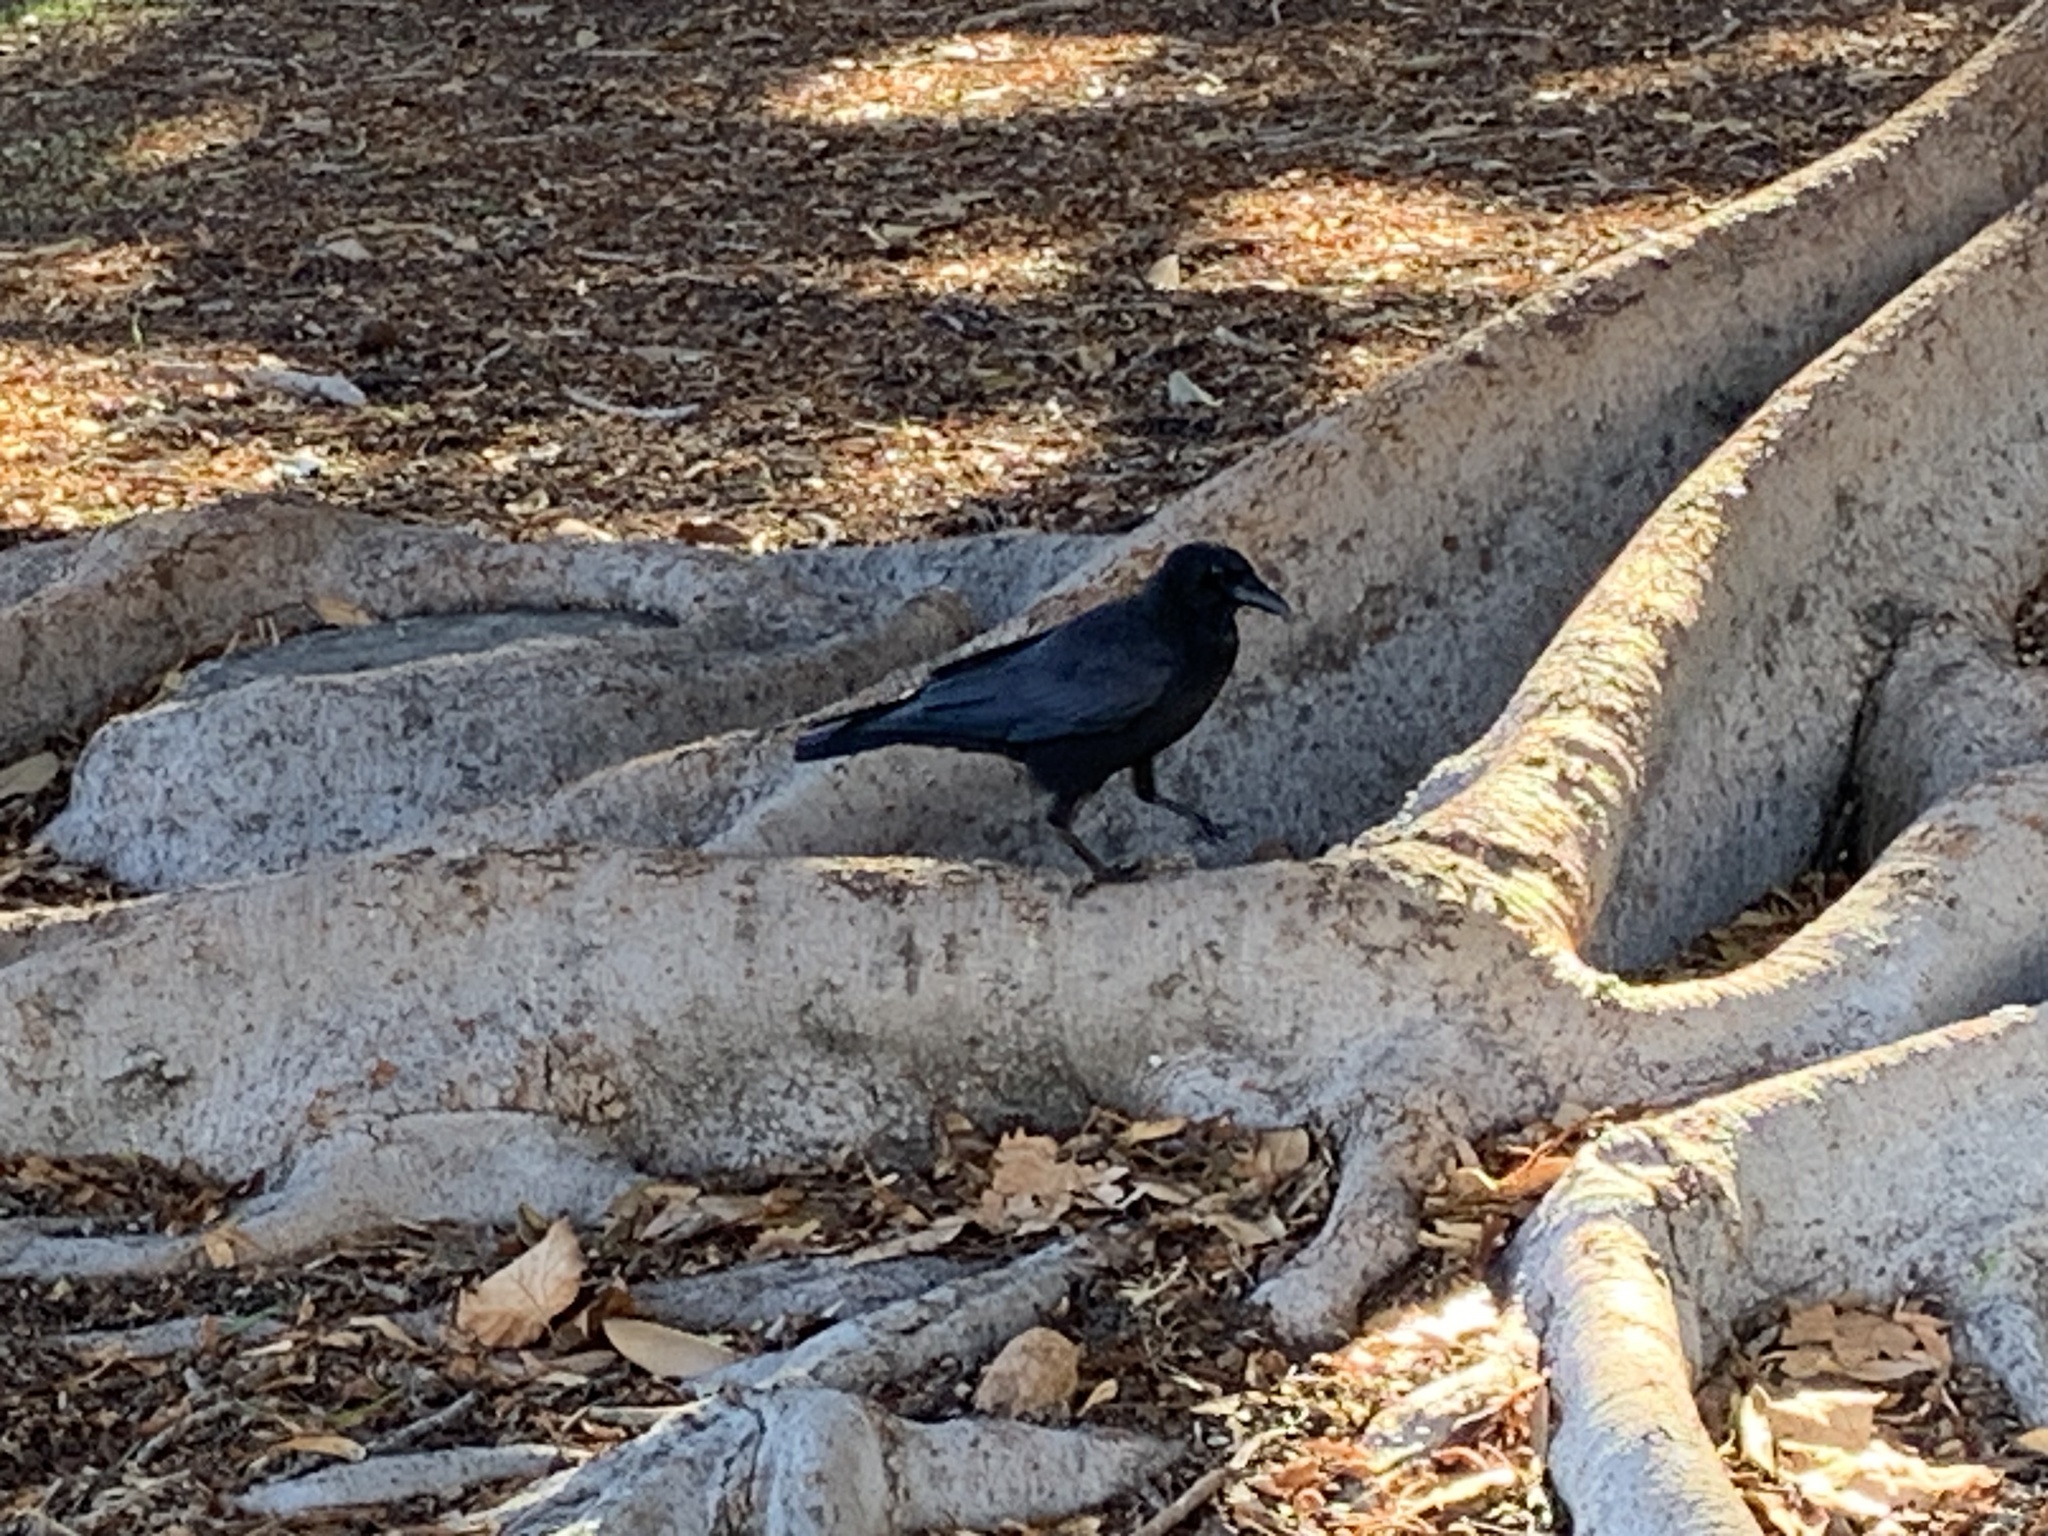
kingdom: Animalia
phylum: Chordata
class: Aves
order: Passeriformes
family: Corvidae
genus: Corvus
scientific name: Corvus brachyrhynchos
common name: American crow
